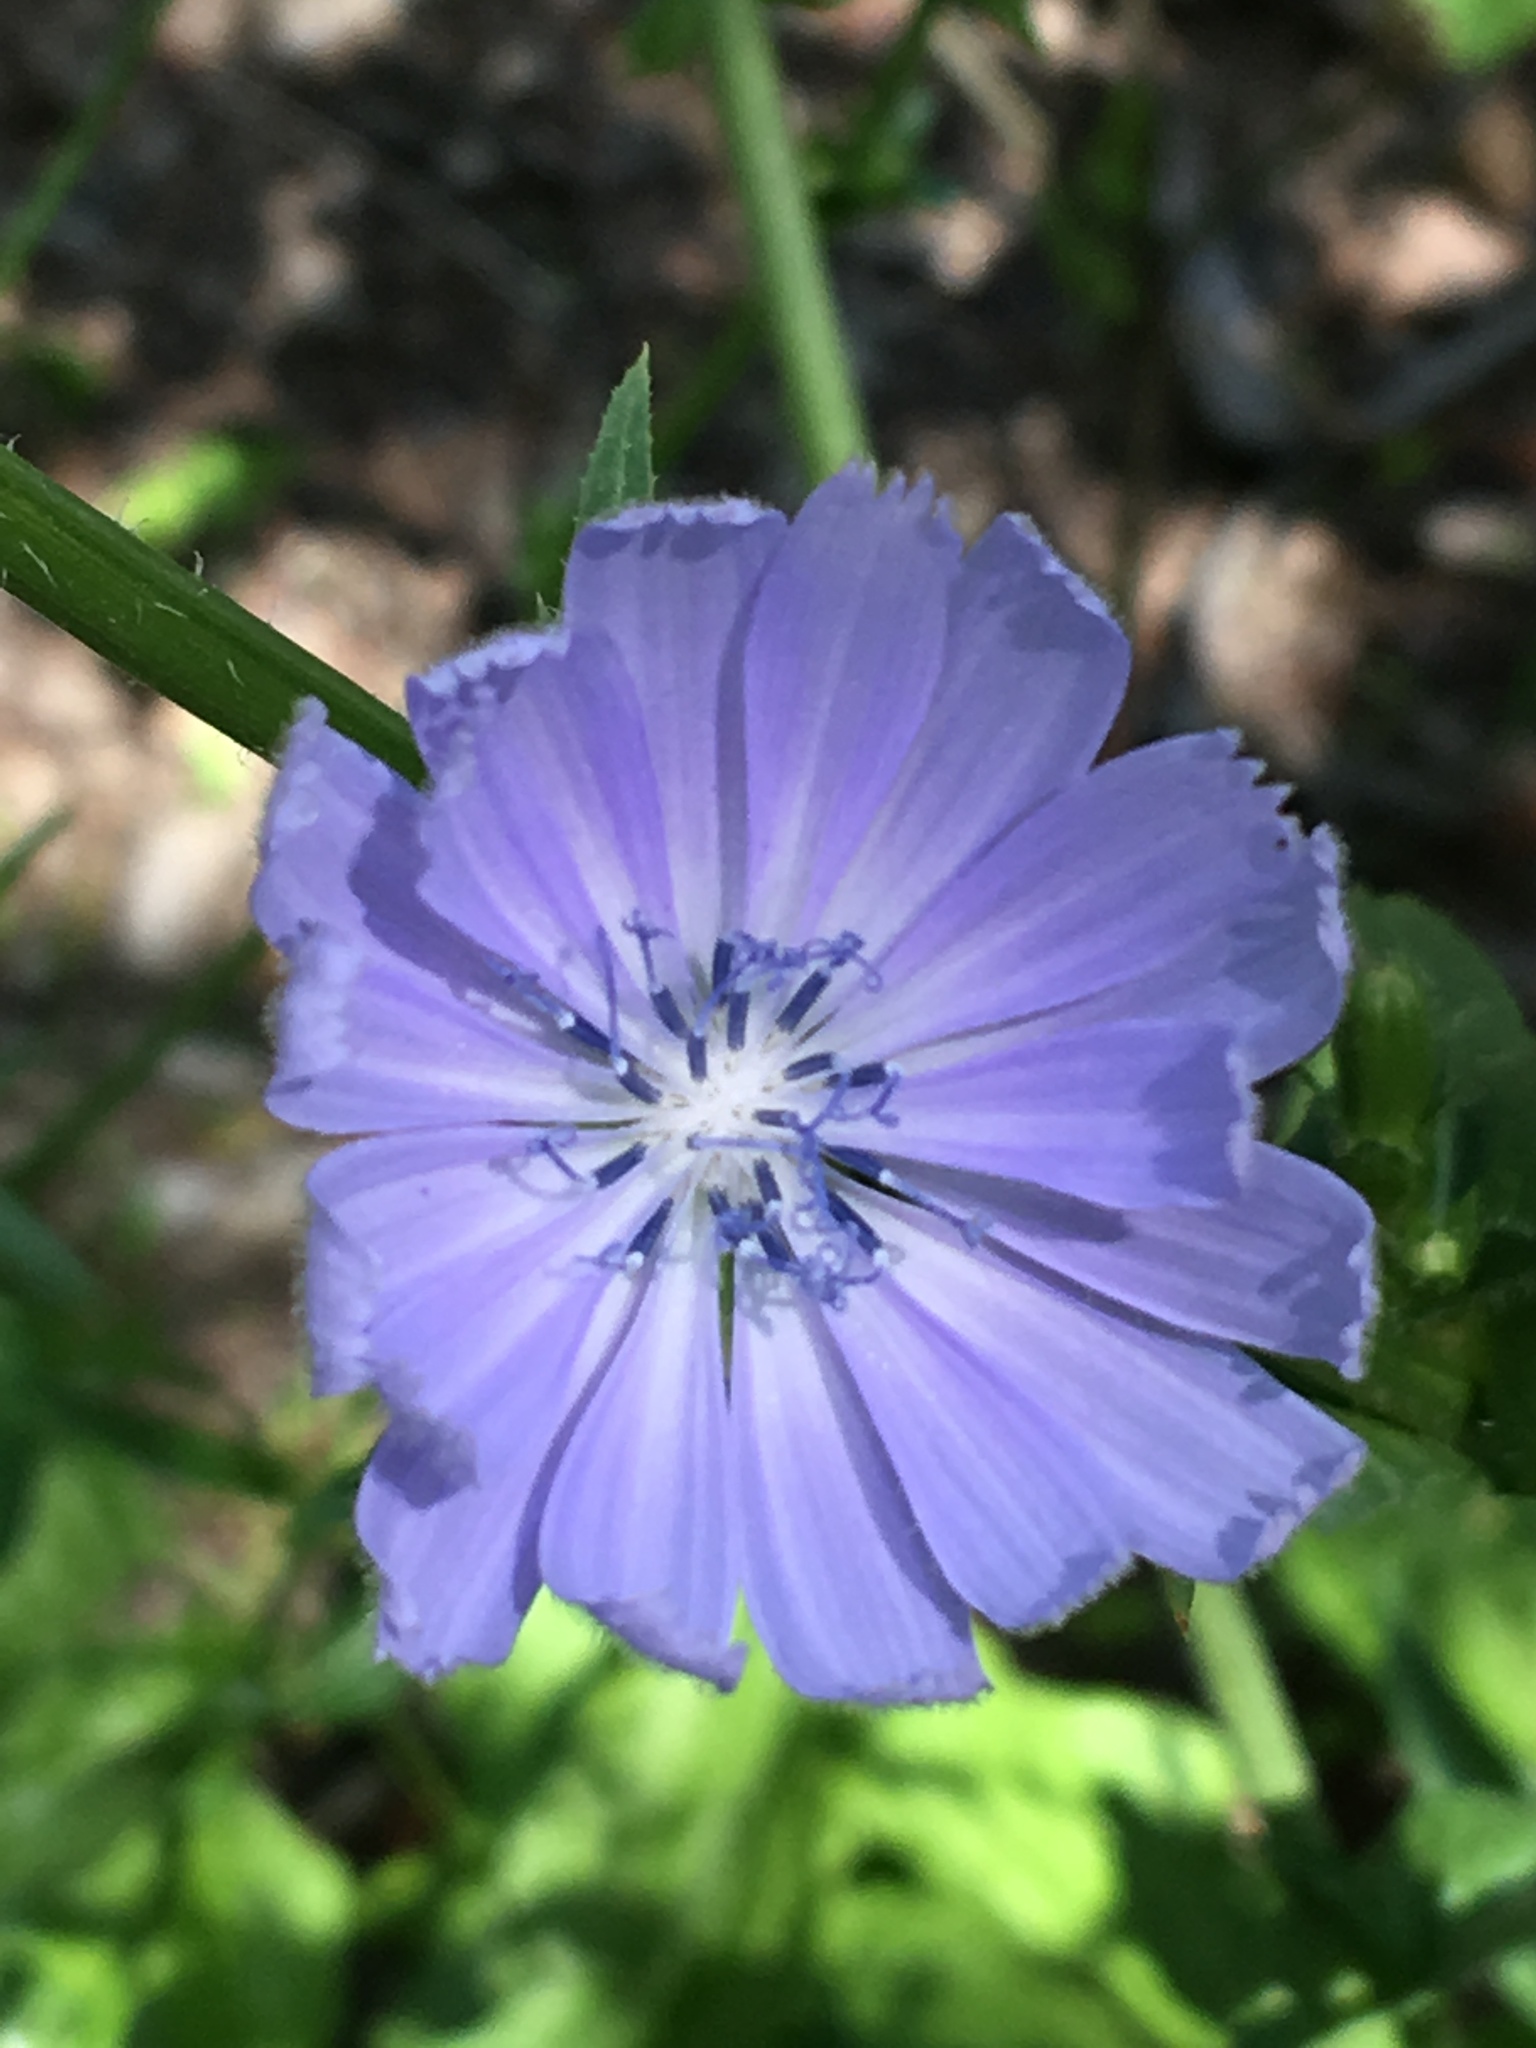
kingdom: Plantae
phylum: Tracheophyta
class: Magnoliopsida
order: Asterales
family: Asteraceae
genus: Cichorium
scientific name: Cichorium intybus
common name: Chicory
